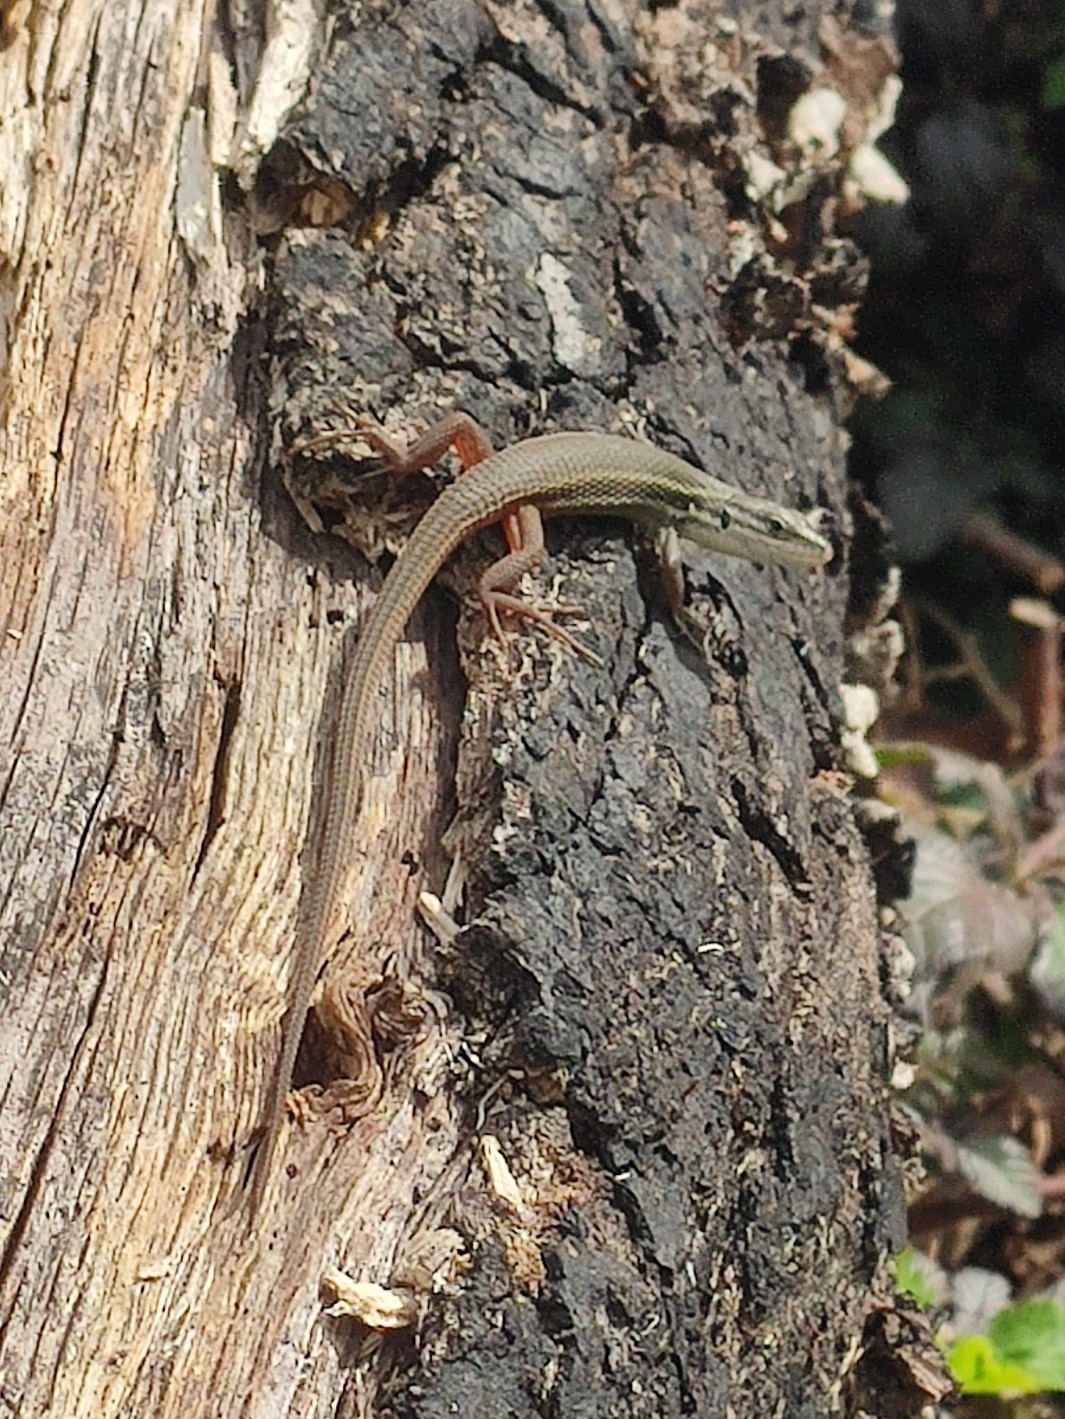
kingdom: Animalia
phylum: Chordata
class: Squamata
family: Lacertidae
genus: Psammodromus
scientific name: Psammodromus algirus
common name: Algerian psammodromus
